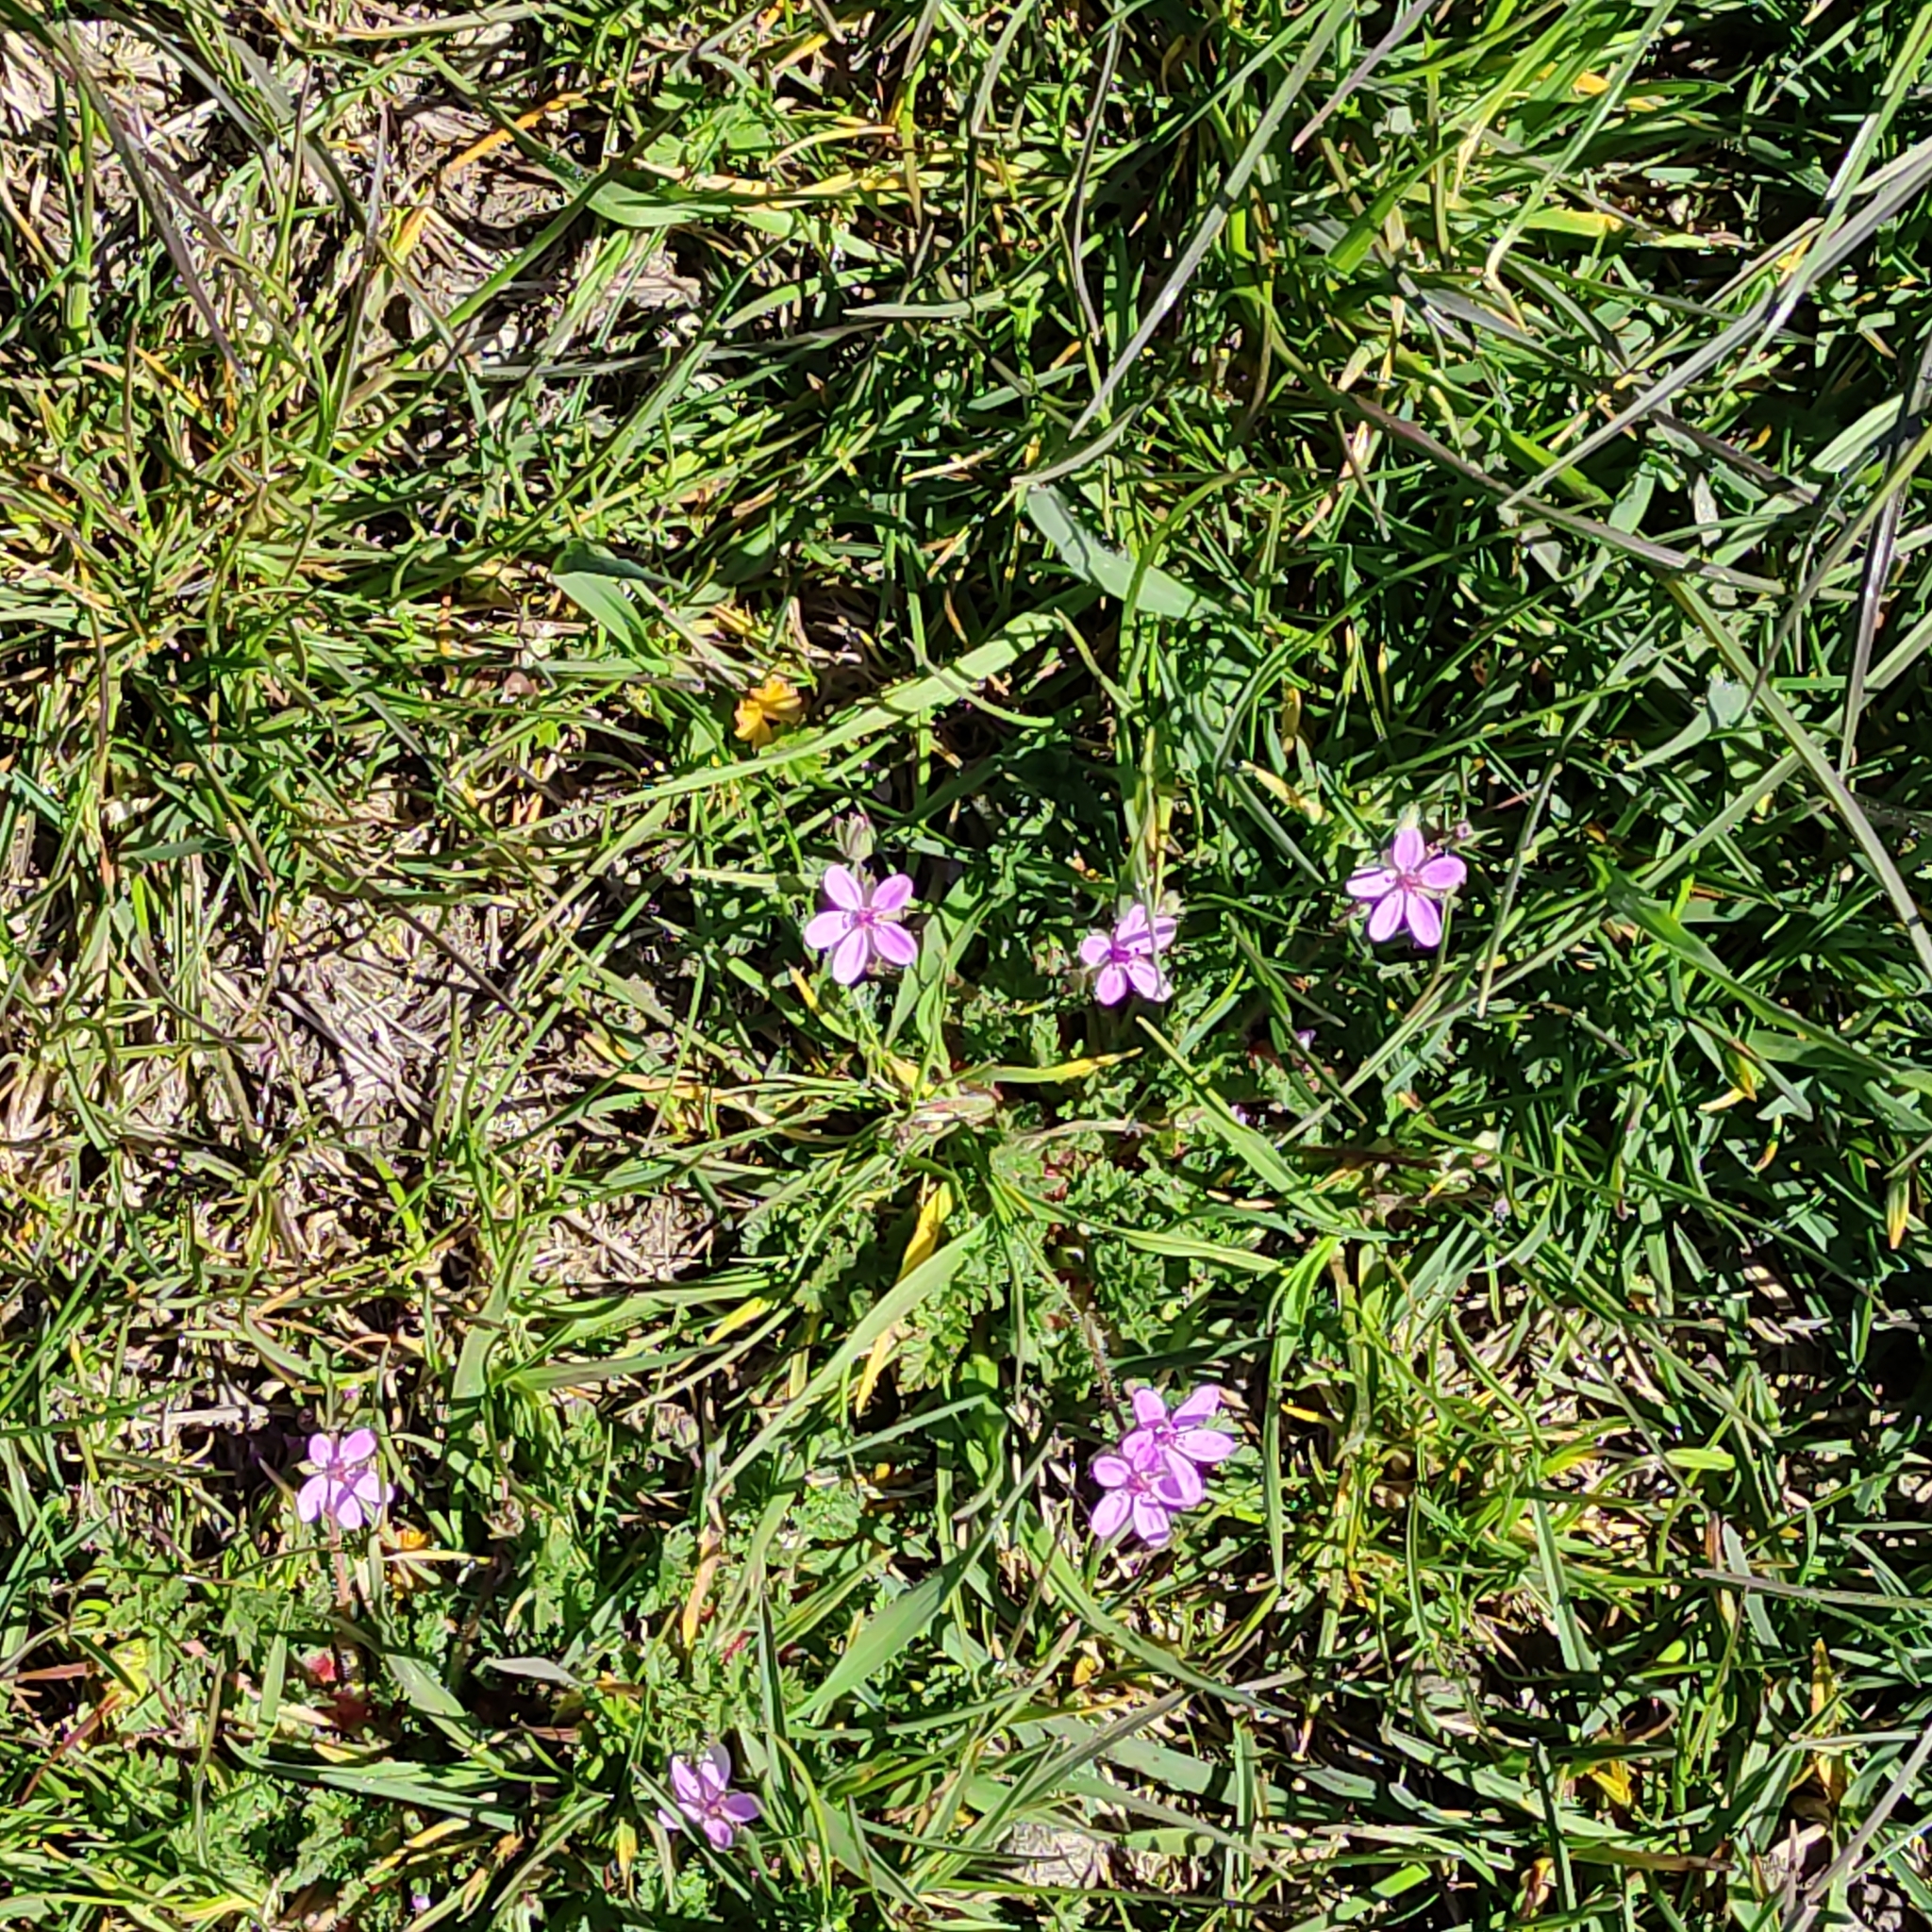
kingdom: Plantae
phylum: Tracheophyta
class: Magnoliopsida
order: Geraniales
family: Geraniaceae
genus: Erodium
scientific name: Erodium cicutarium
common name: Common stork's-bill
